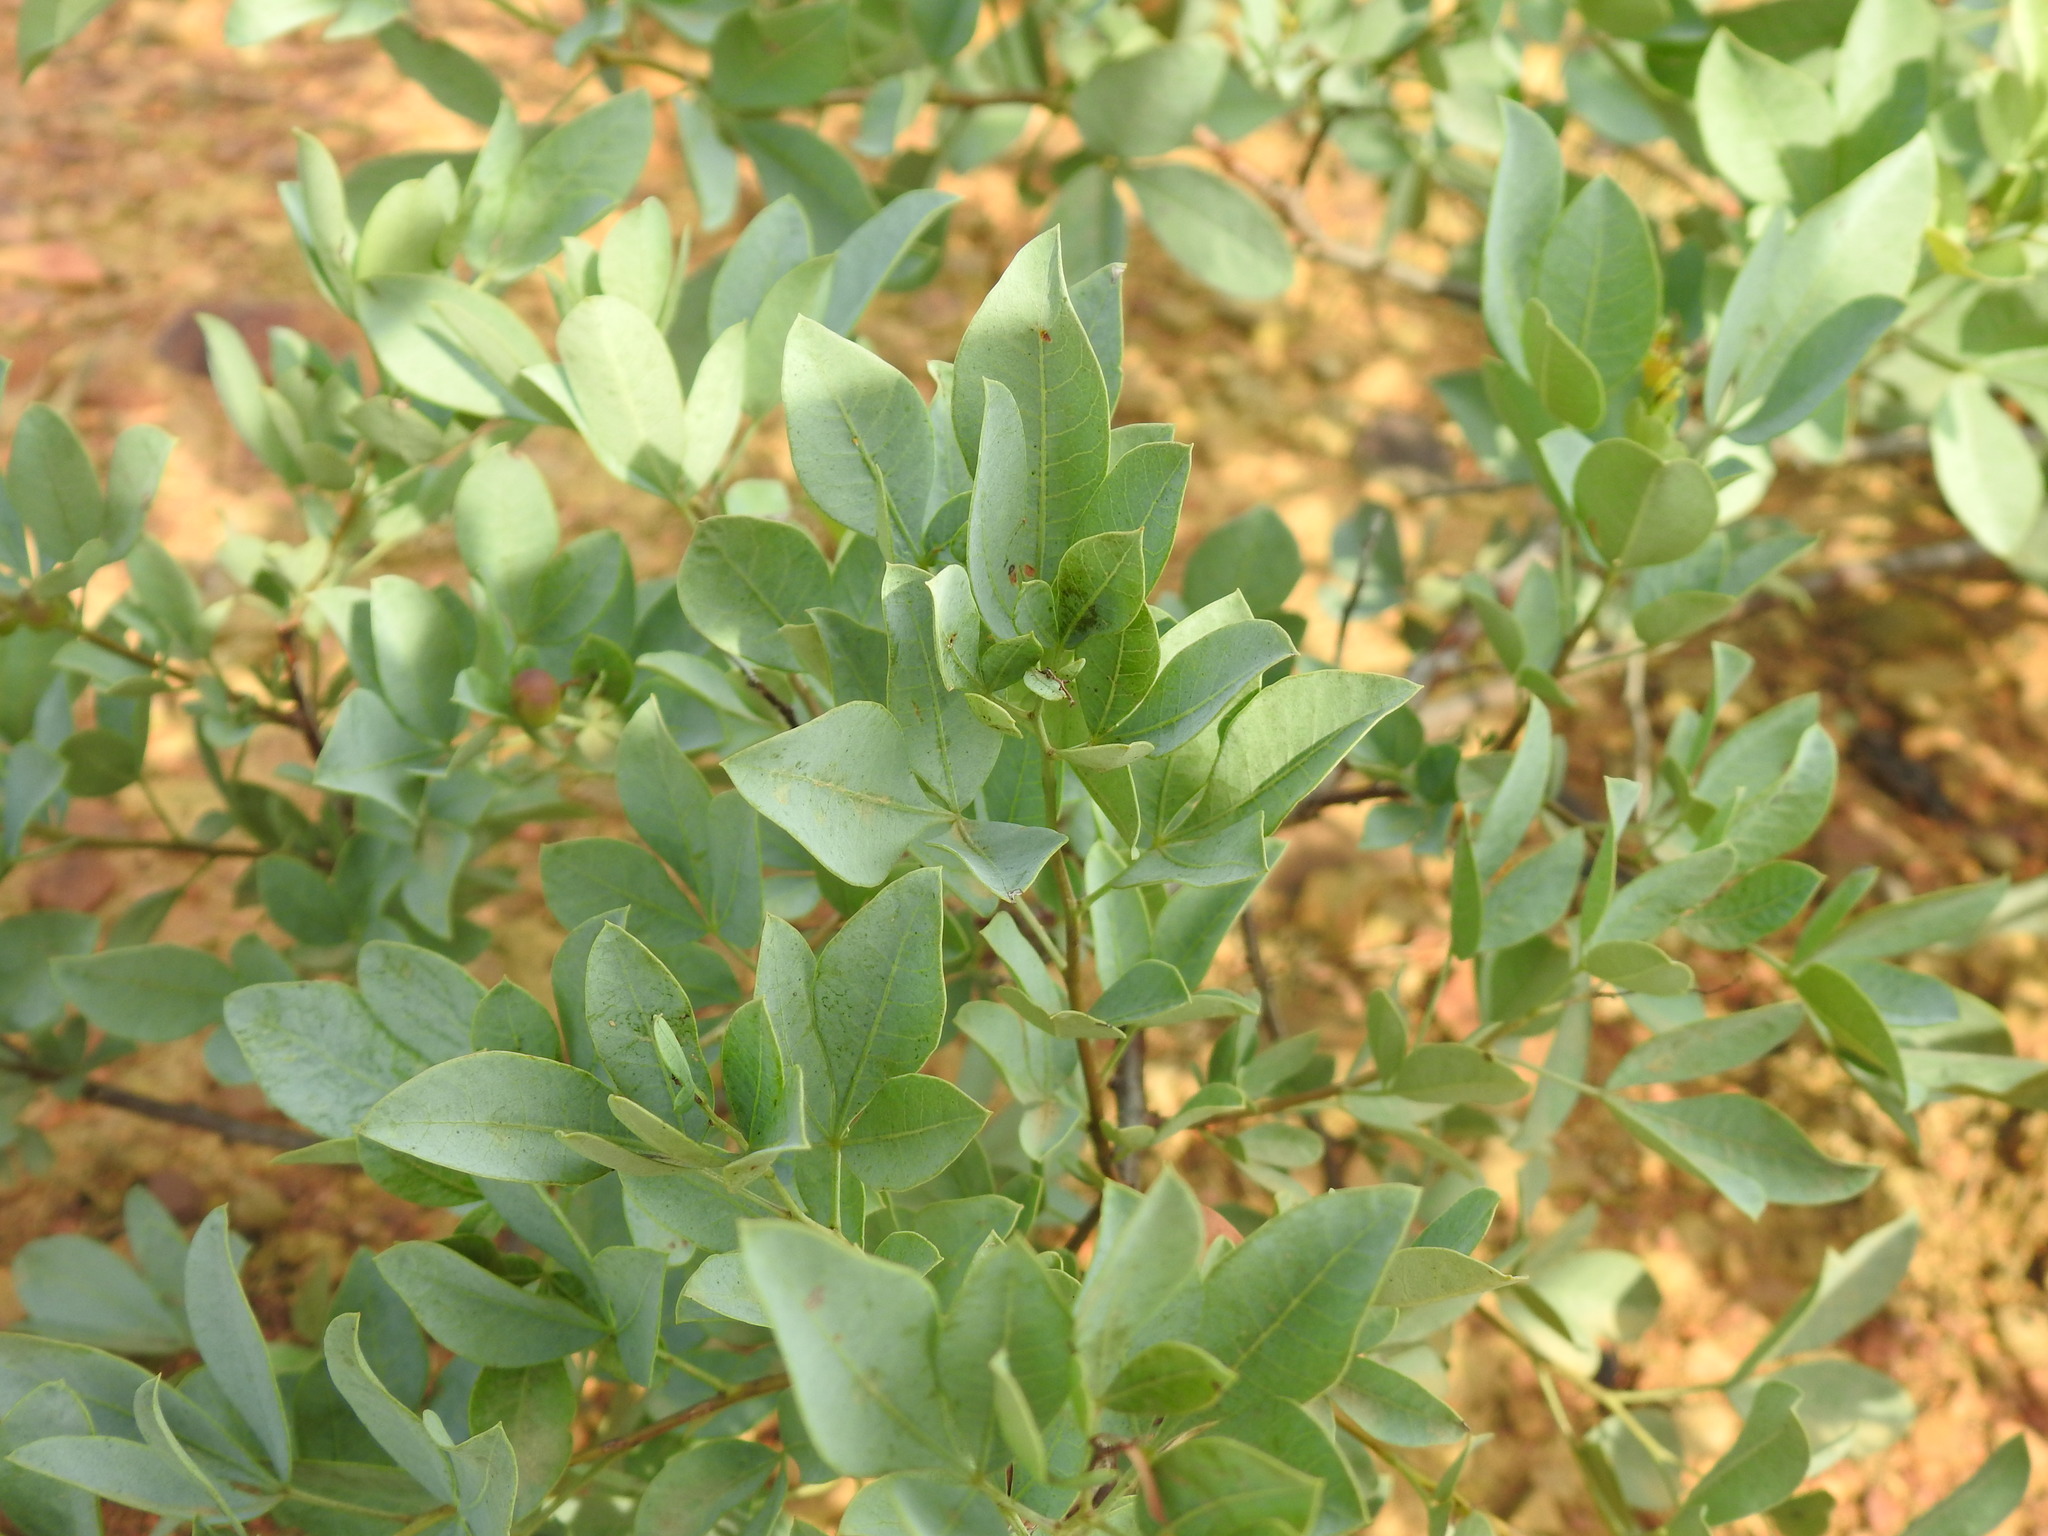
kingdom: Plantae
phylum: Tracheophyta
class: Magnoliopsida
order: Sapindales
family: Anacardiaceae
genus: Searsia
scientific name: Searsia zeyheri
